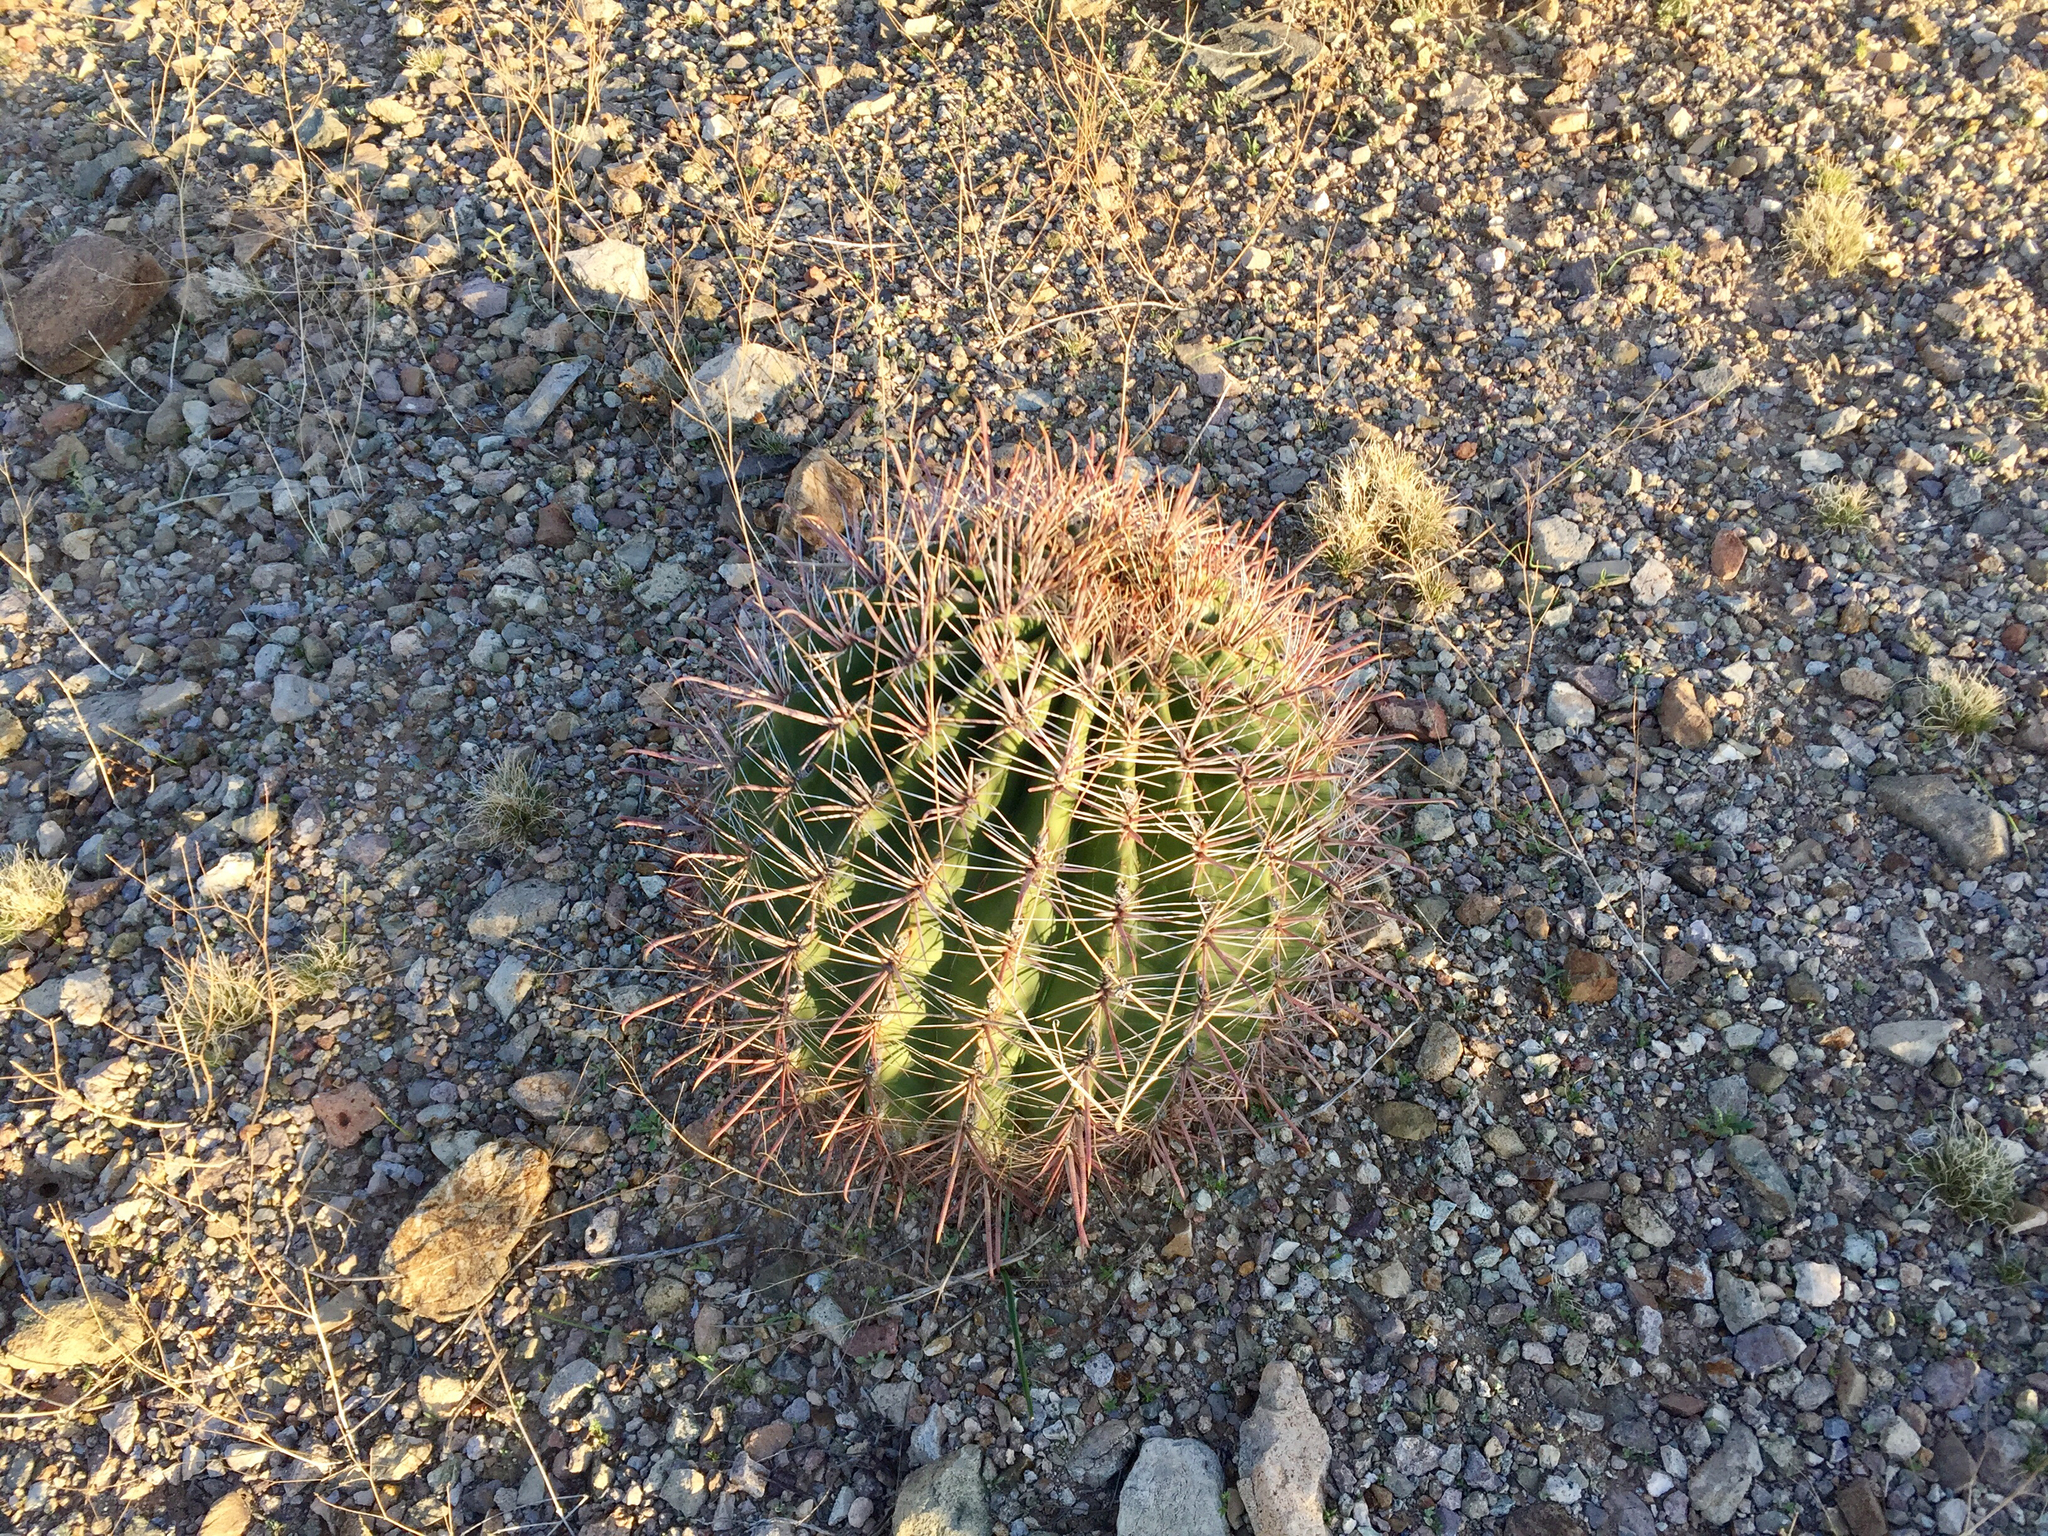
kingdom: Plantae
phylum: Tracheophyta
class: Magnoliopsida
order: Caryophyllales
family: Cactaceae
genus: Ferocactus
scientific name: Ferocactus wislizeni
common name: Candy barrel cactus
